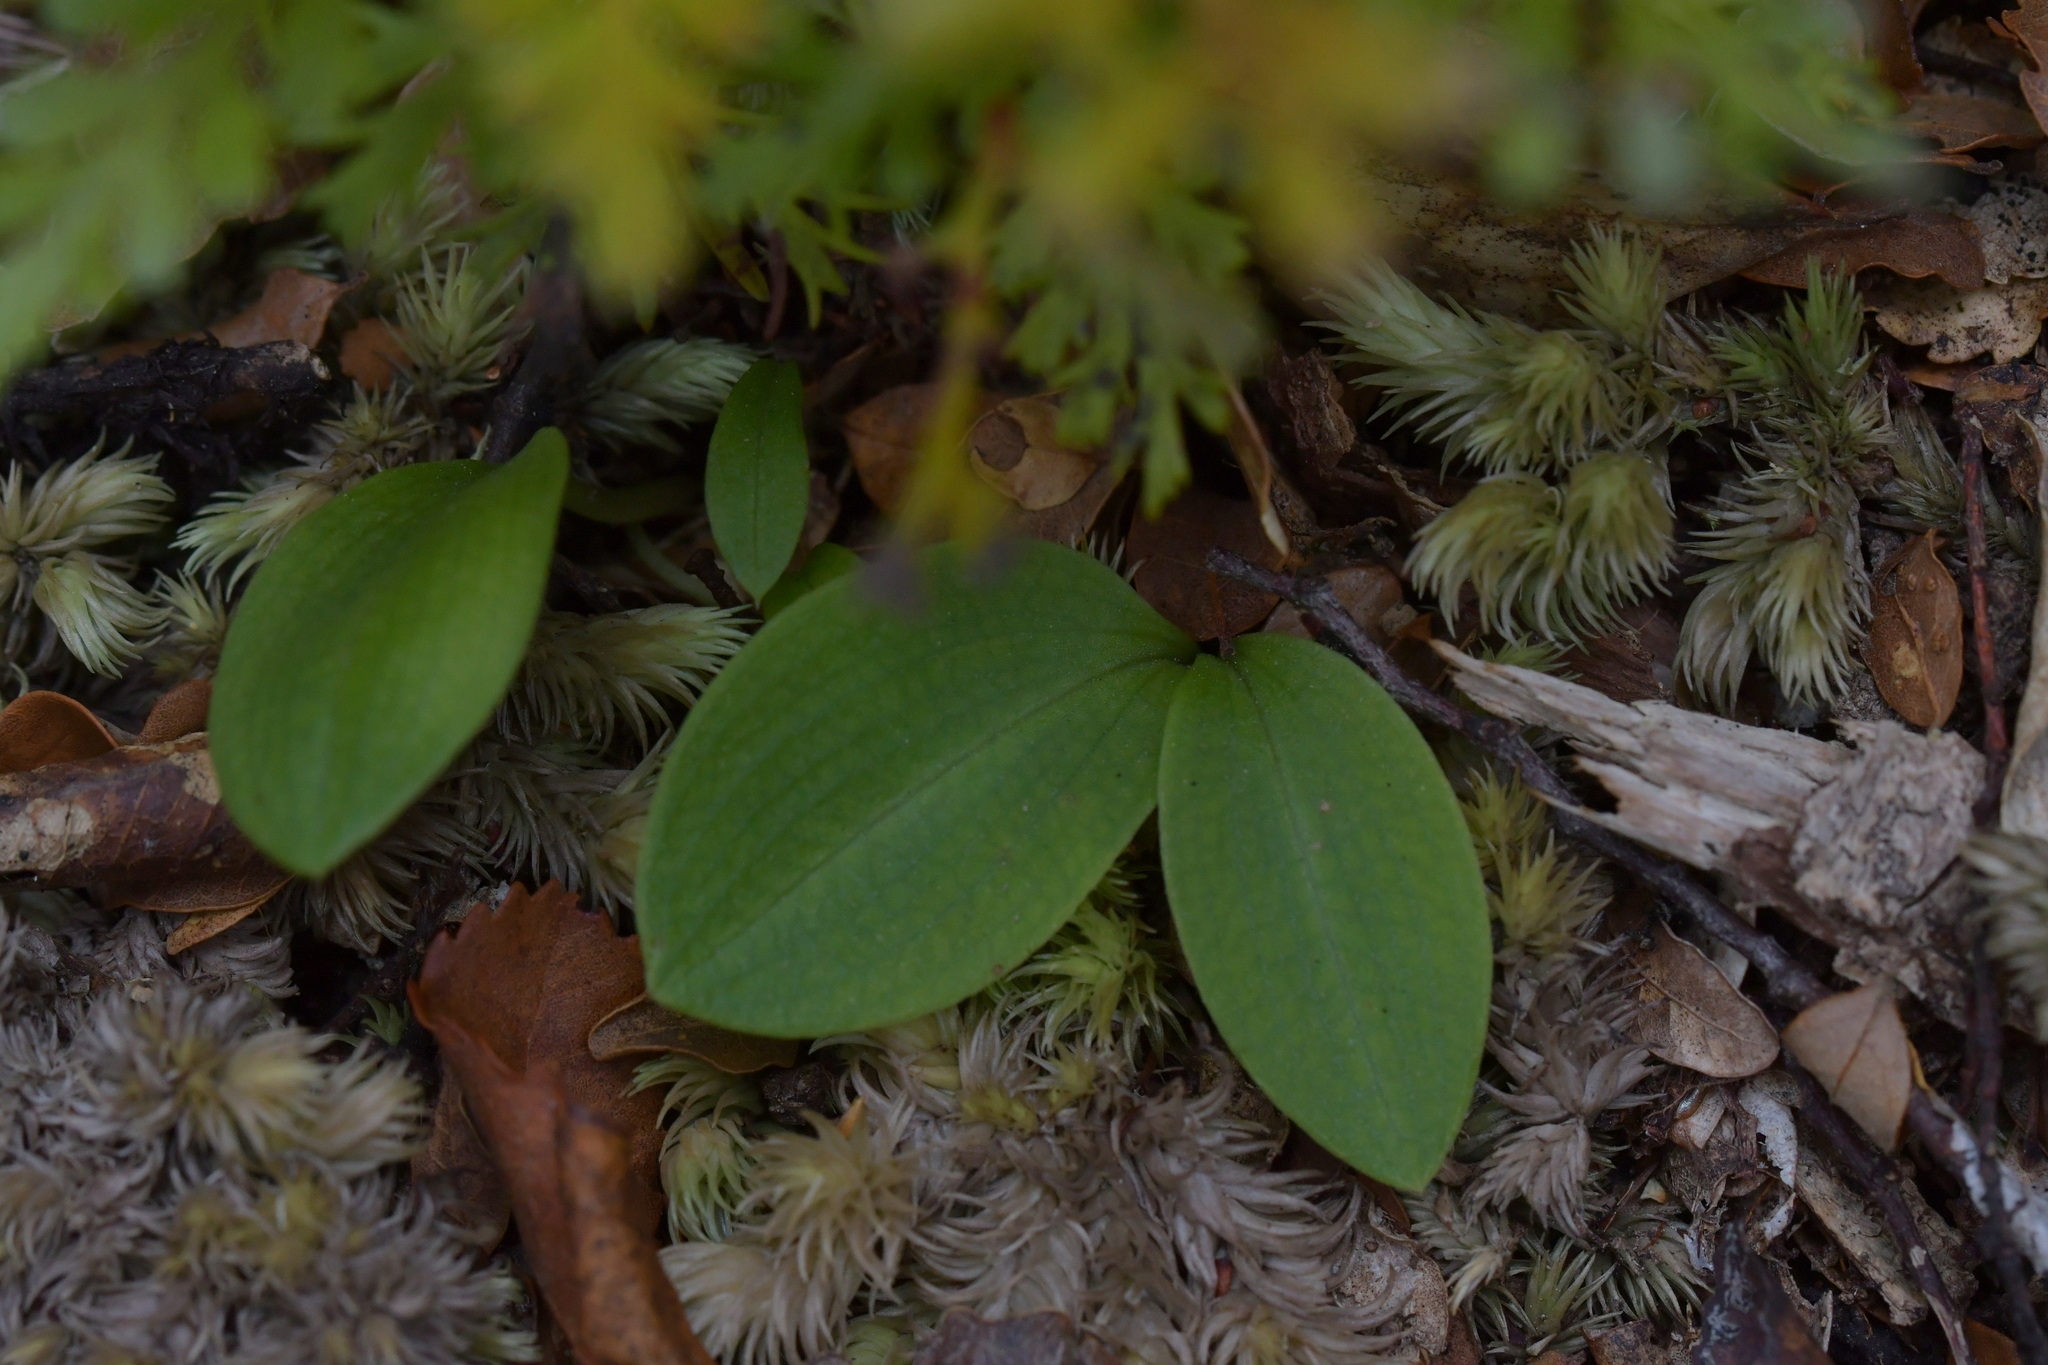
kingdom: Plantae
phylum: Tracheophyta
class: Liliopsida
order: Asparagales
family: Orchidaceae
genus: Chiloglottis
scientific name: Chiloglottis cornuta
